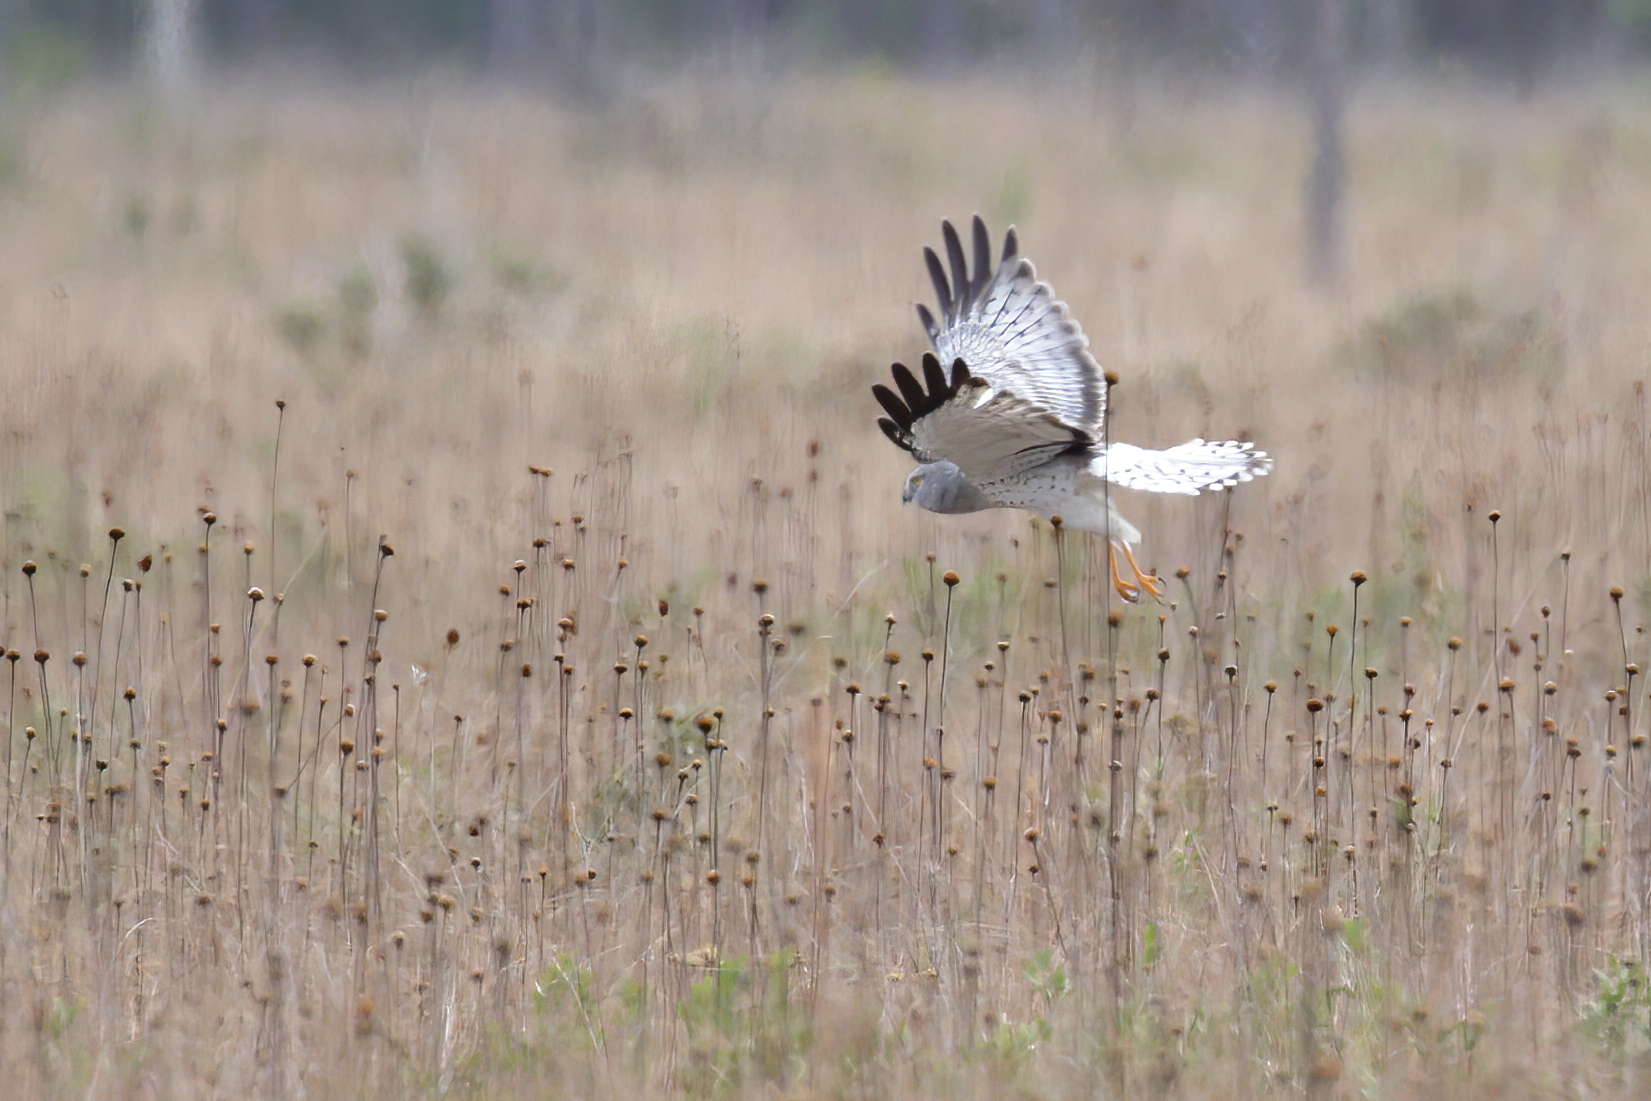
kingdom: Animalia
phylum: Chordata
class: Aves
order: Accipitriformes
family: Accipitridae
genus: Circus
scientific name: Circus cyaneus
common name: Hen harrier
